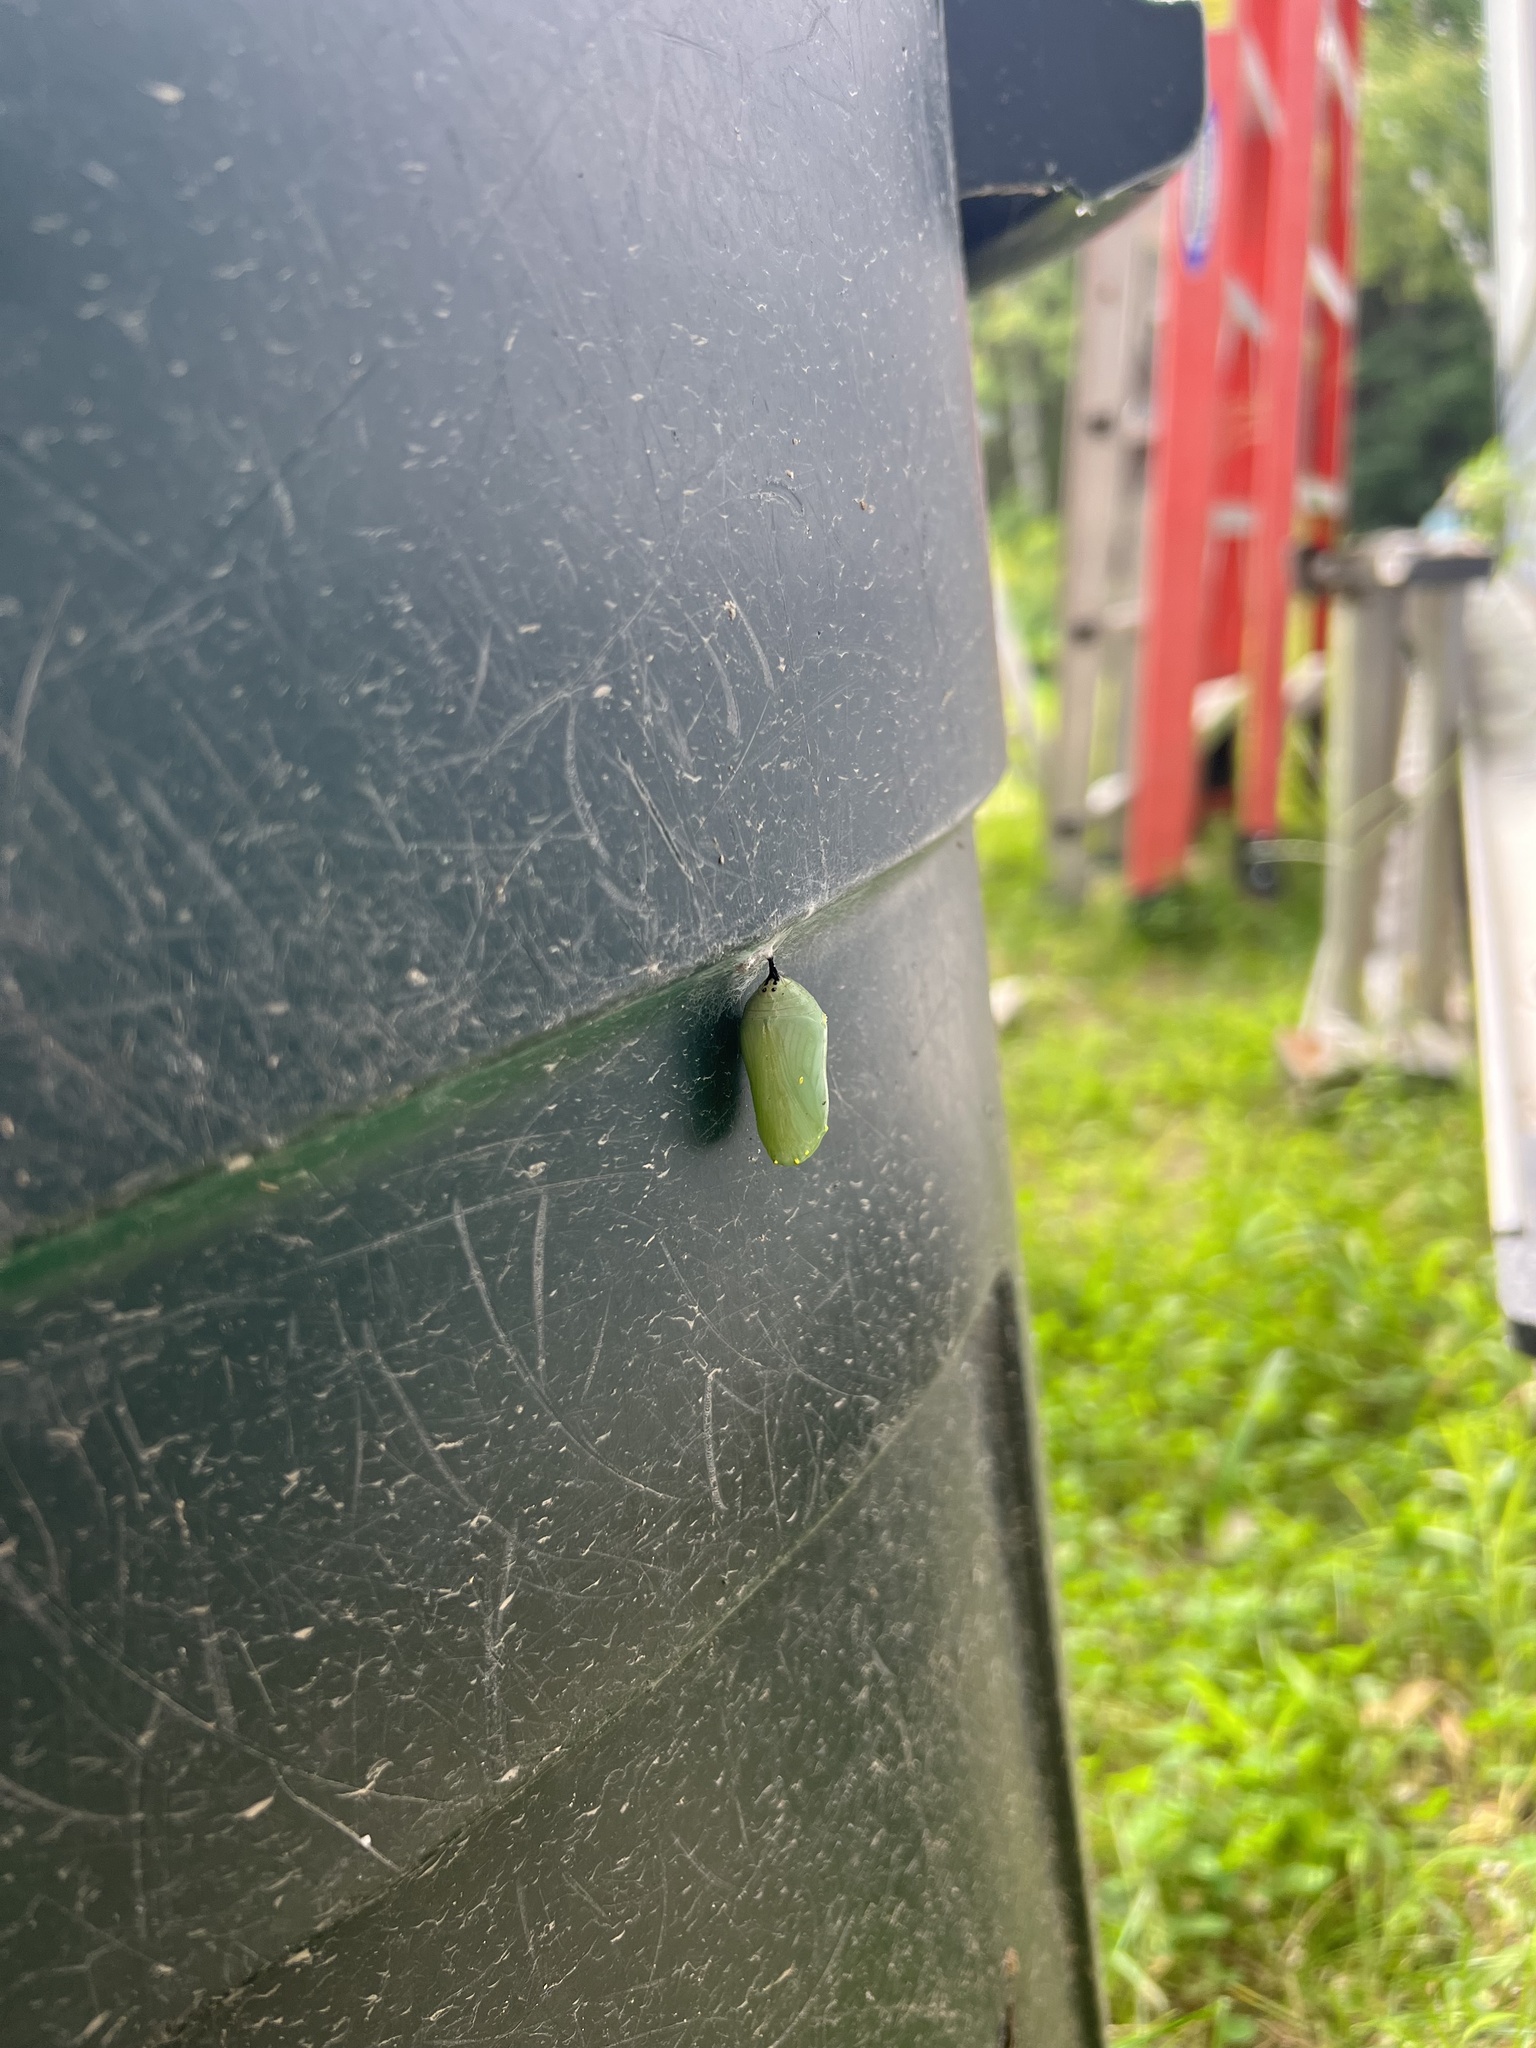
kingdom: Animalia
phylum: Arthropoda
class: Insecta
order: Lepidoptera
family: Nymphalidae
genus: Danaus
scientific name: Danaus plexippus
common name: Monarch
